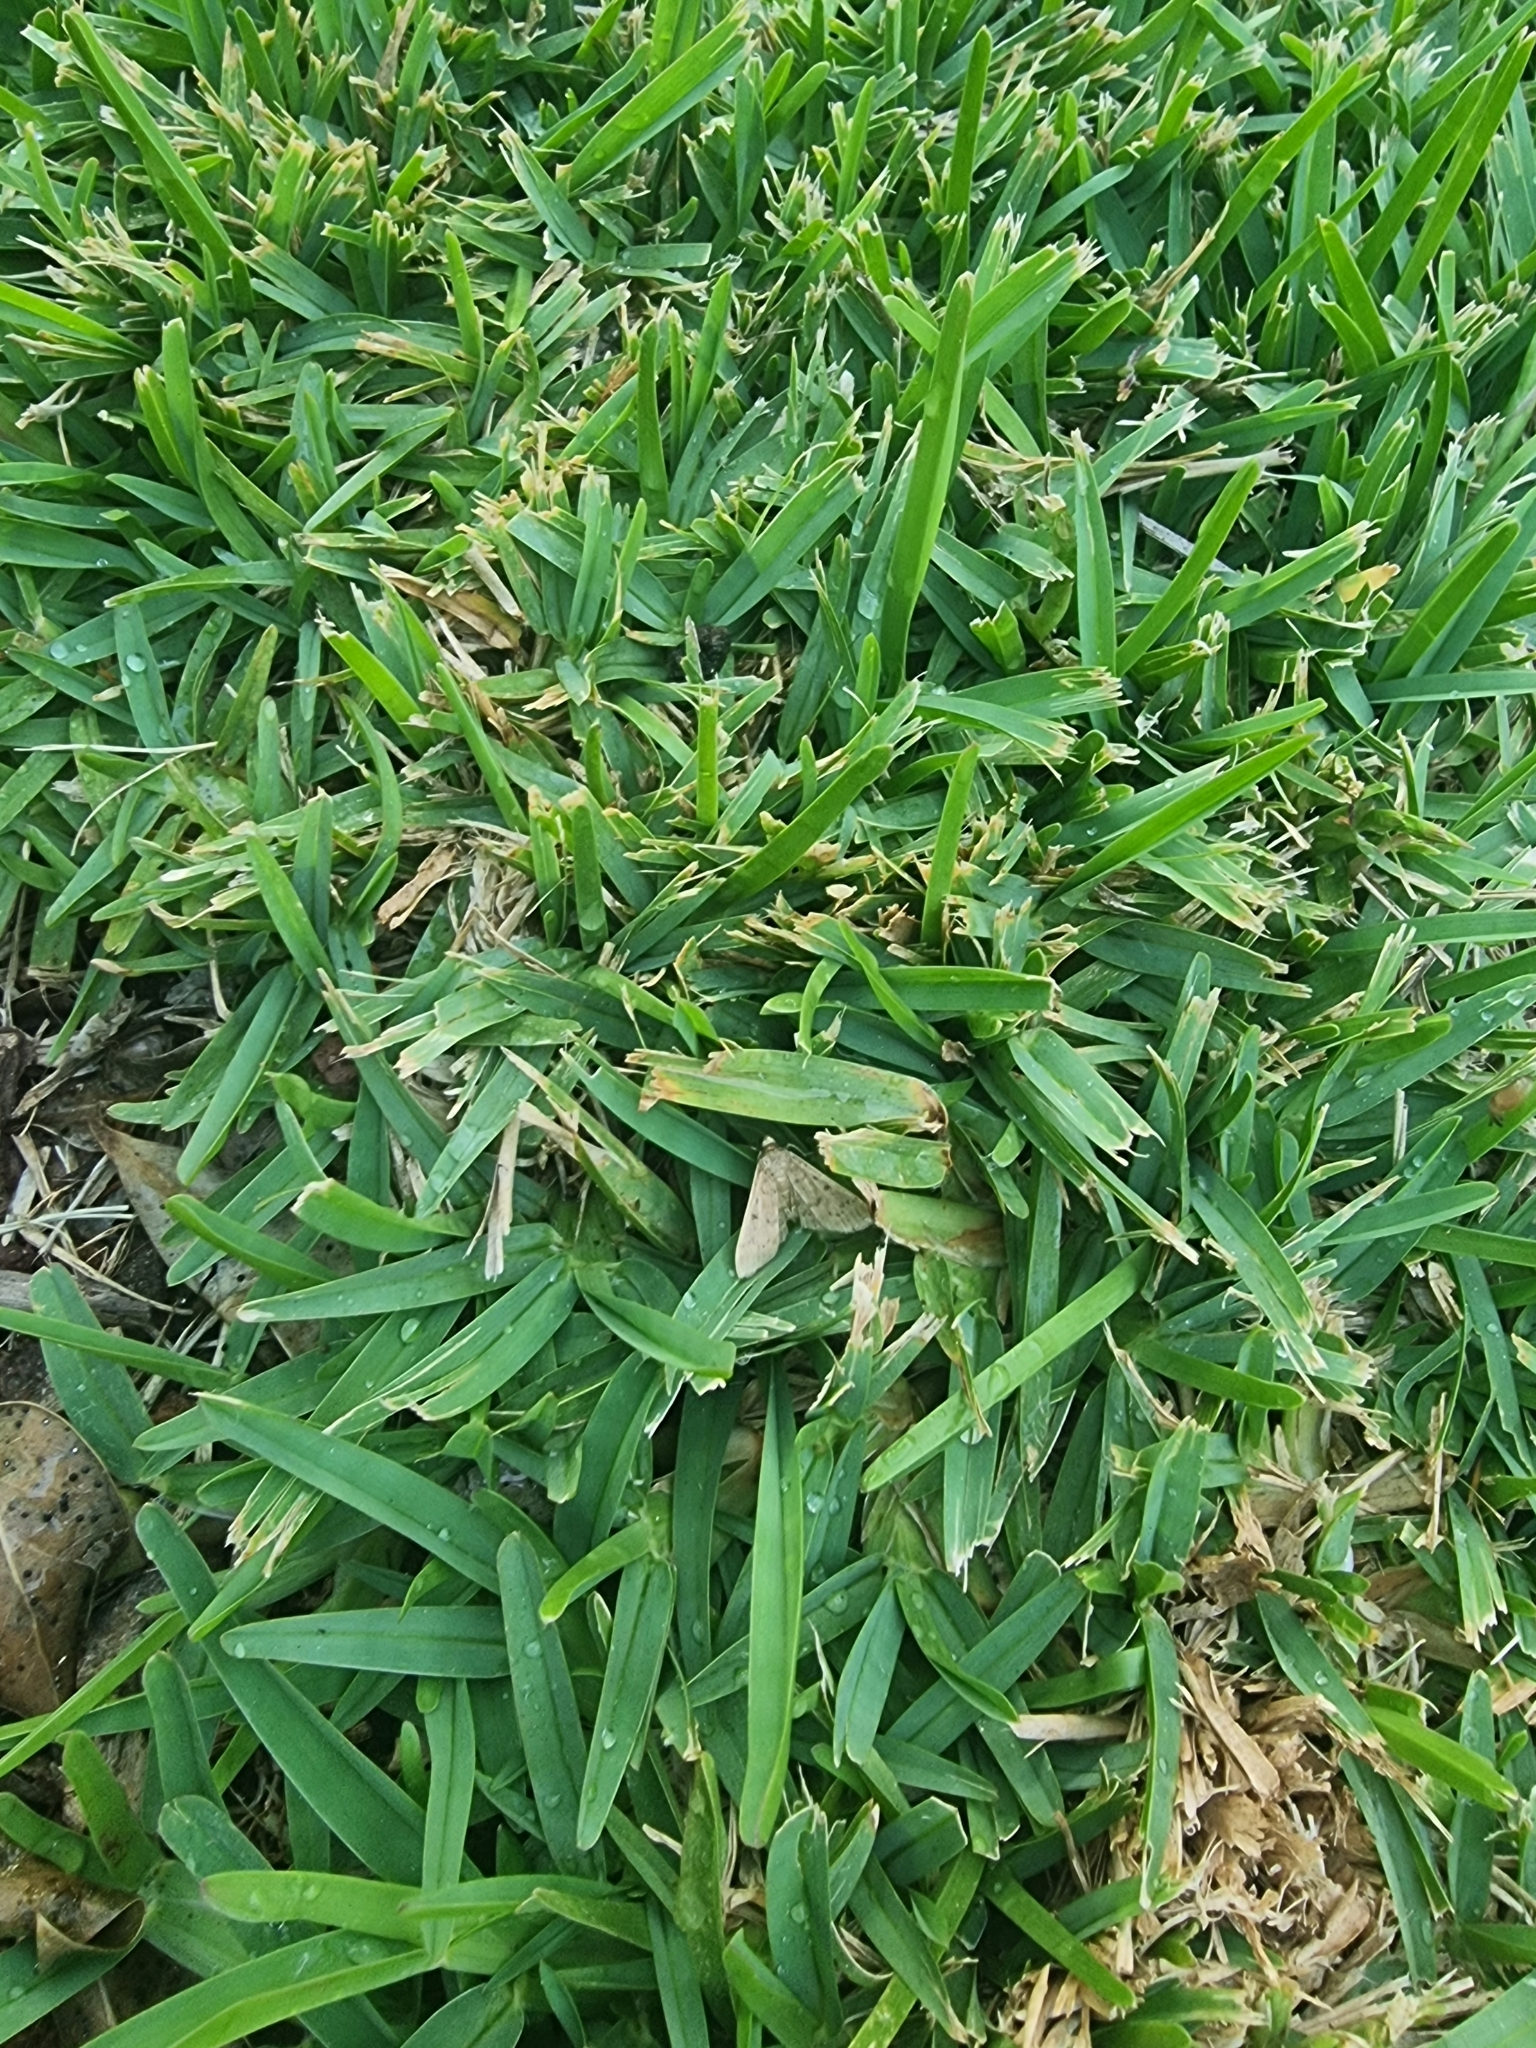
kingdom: Animalia
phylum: Arthropoda
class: Insecta
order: Lepidoptera
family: Crambidae
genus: Herpetogramma
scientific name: Herpetogramma licarsisalis
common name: Grass webworm
